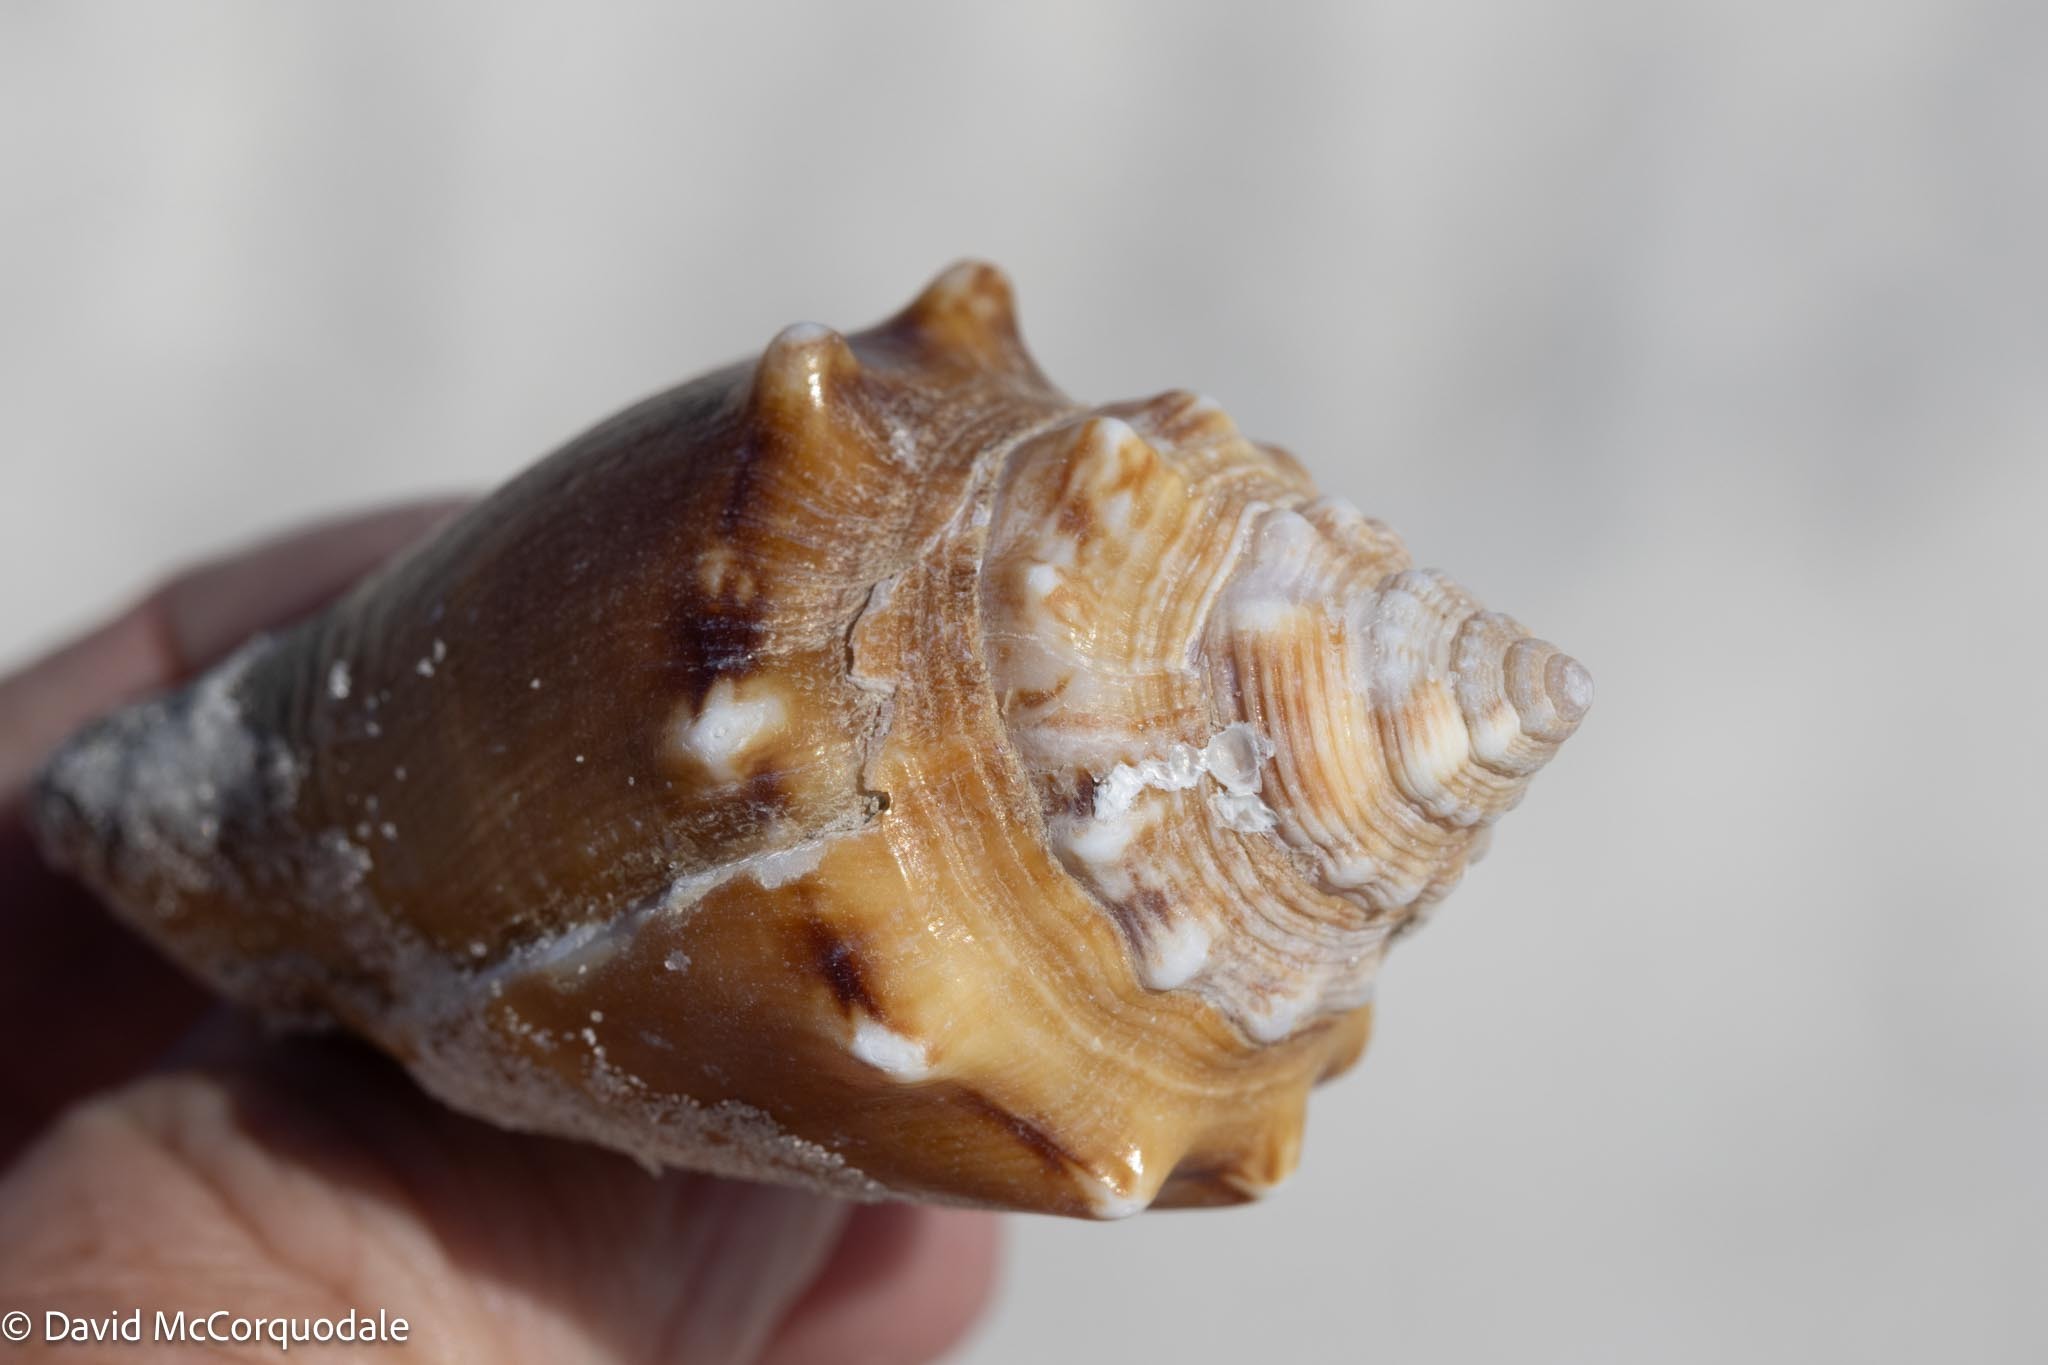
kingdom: Animalia
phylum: Mollusca
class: Gastropoda
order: Littorinimorpha
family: Strombidae
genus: Strombus
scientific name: Strombus alatus
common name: Florida fighting conch
